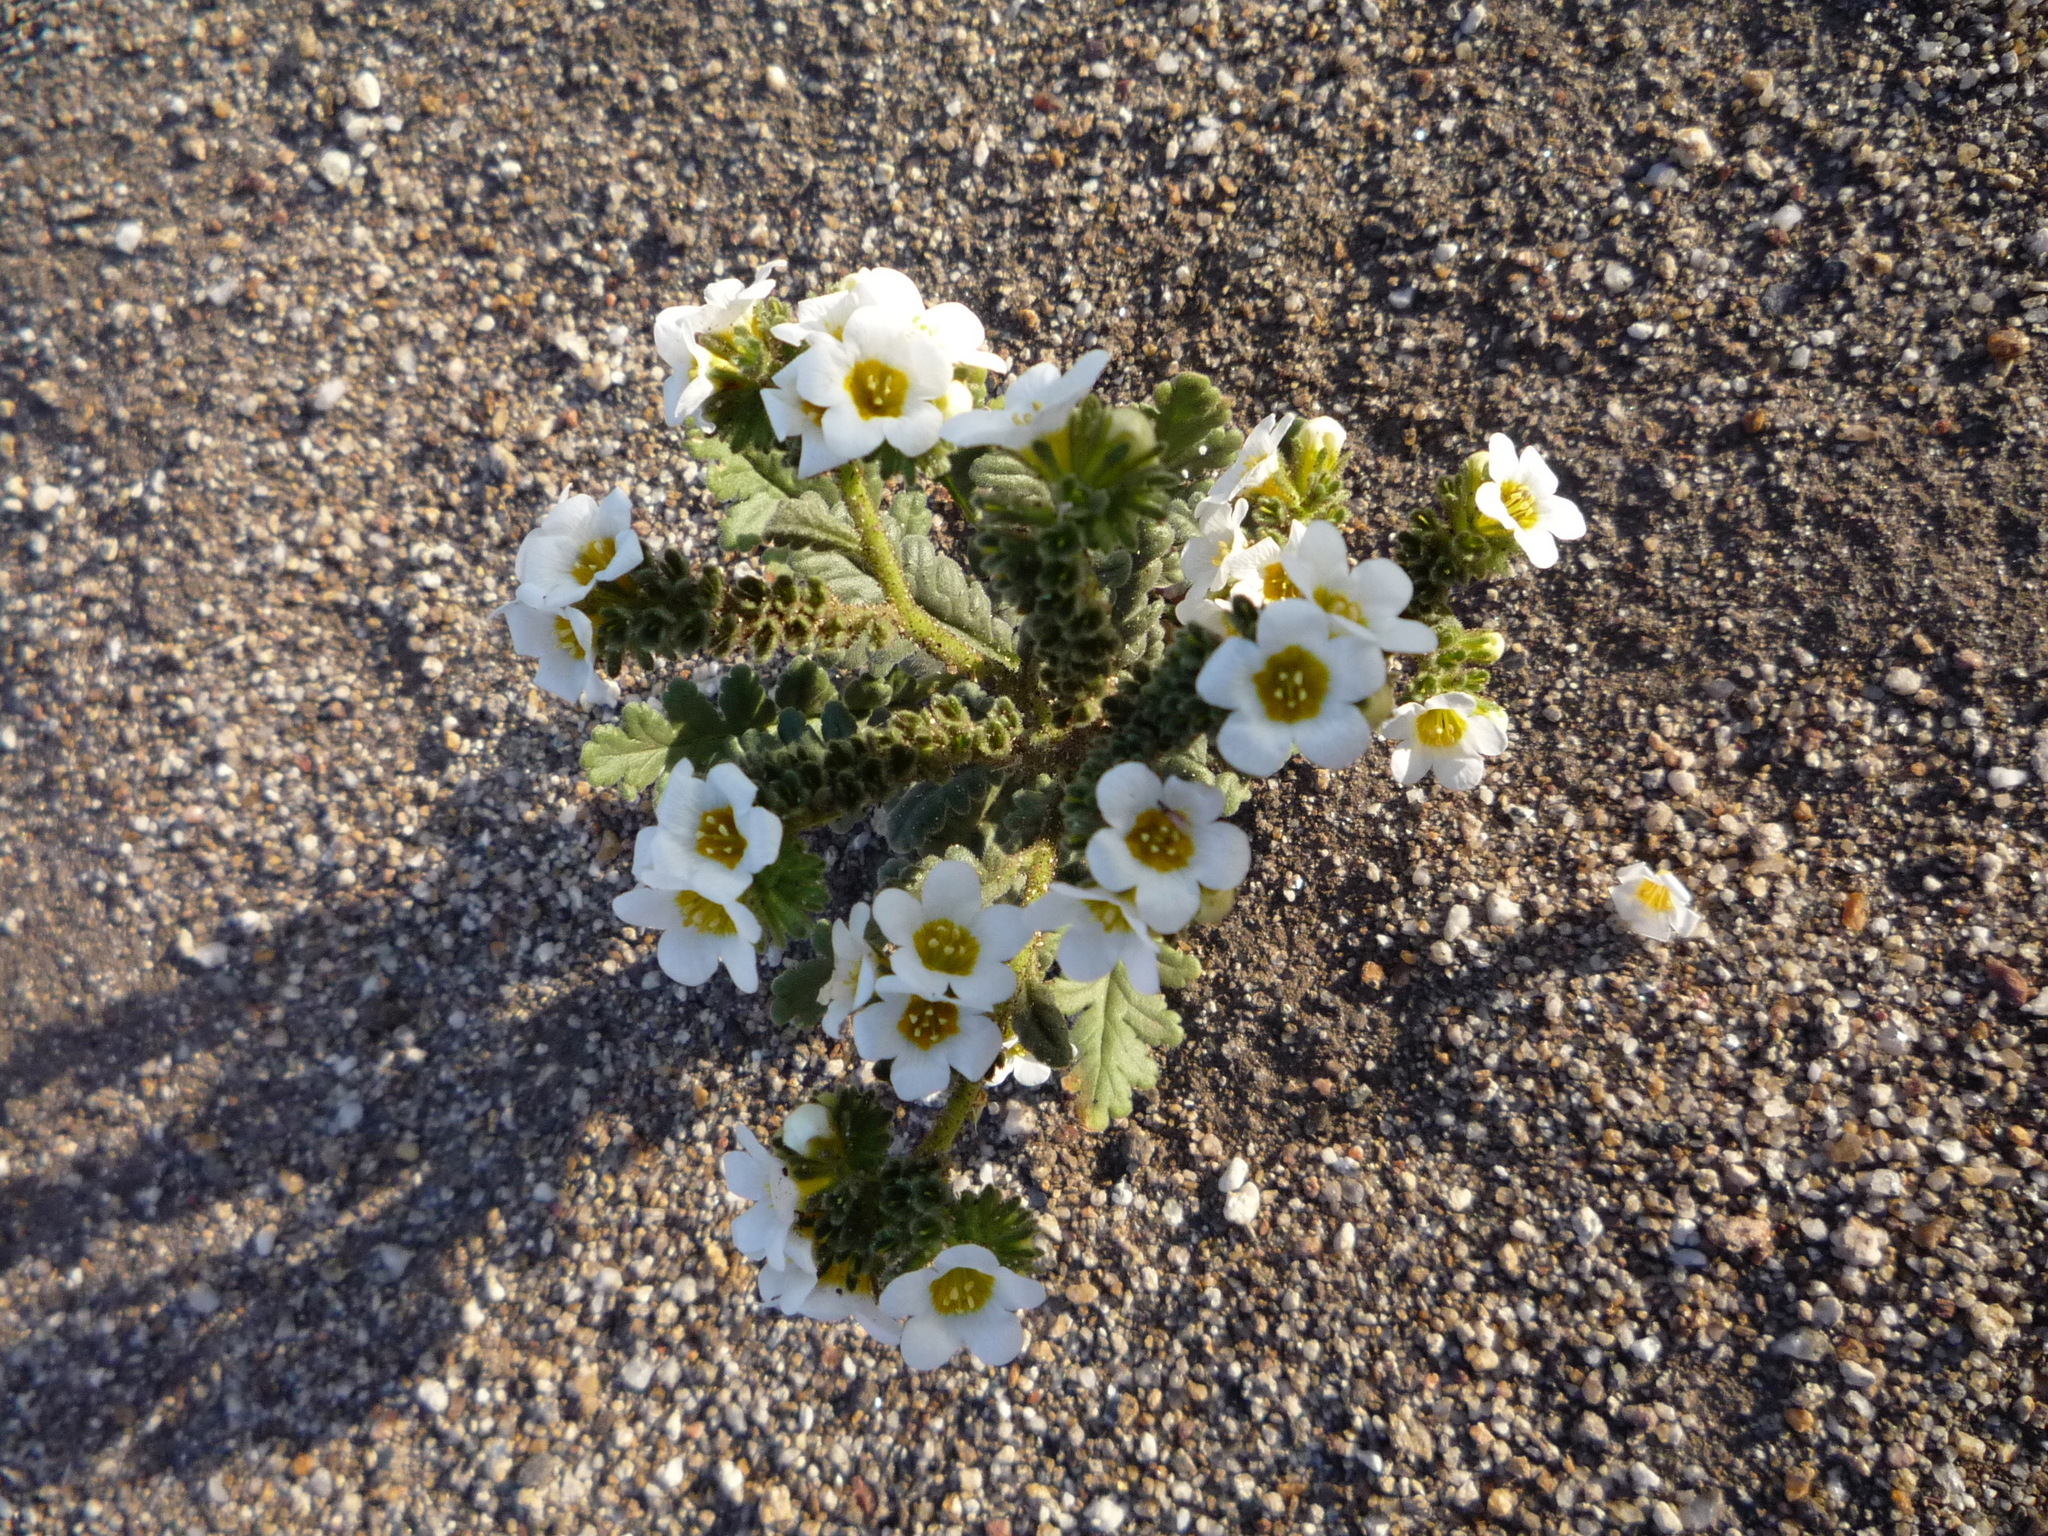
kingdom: Plantae
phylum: Tracheophyta
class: Magnoliopsida
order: Boraginales
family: Hydrophyllaceae
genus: Phacelia
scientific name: Phacelia brachyloba
